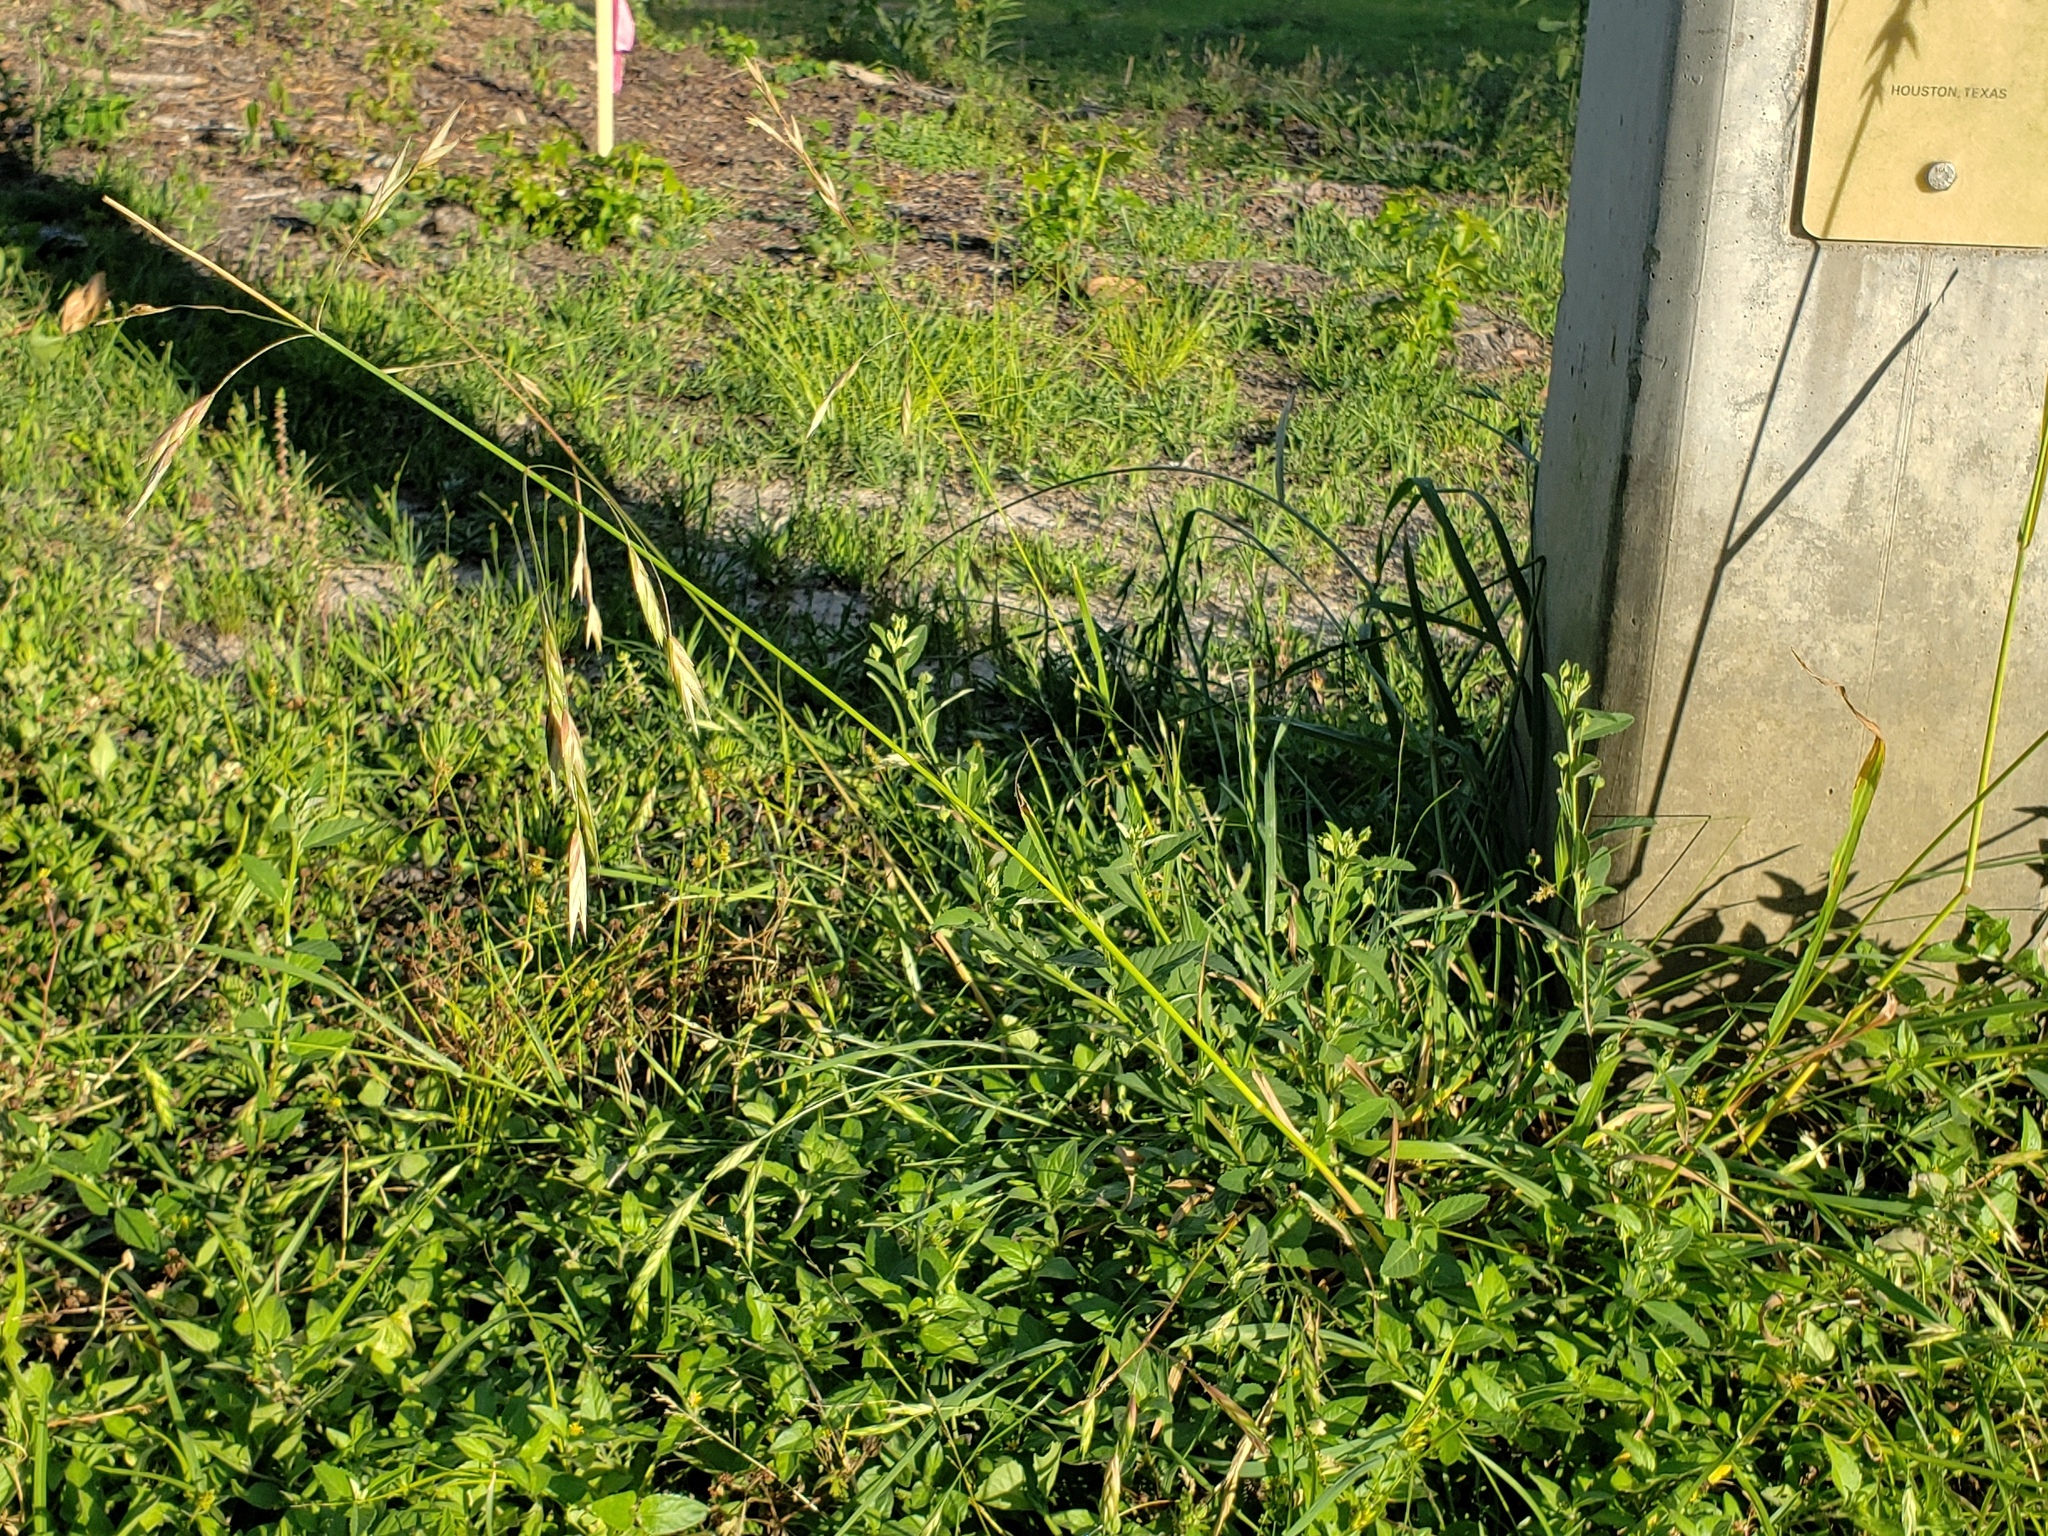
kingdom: Plantae
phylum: Tracheophyta
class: Liliopsida
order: Poales
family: Poaceae
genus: Bromus
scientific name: Bromus catharticus
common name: Rescuegrass
